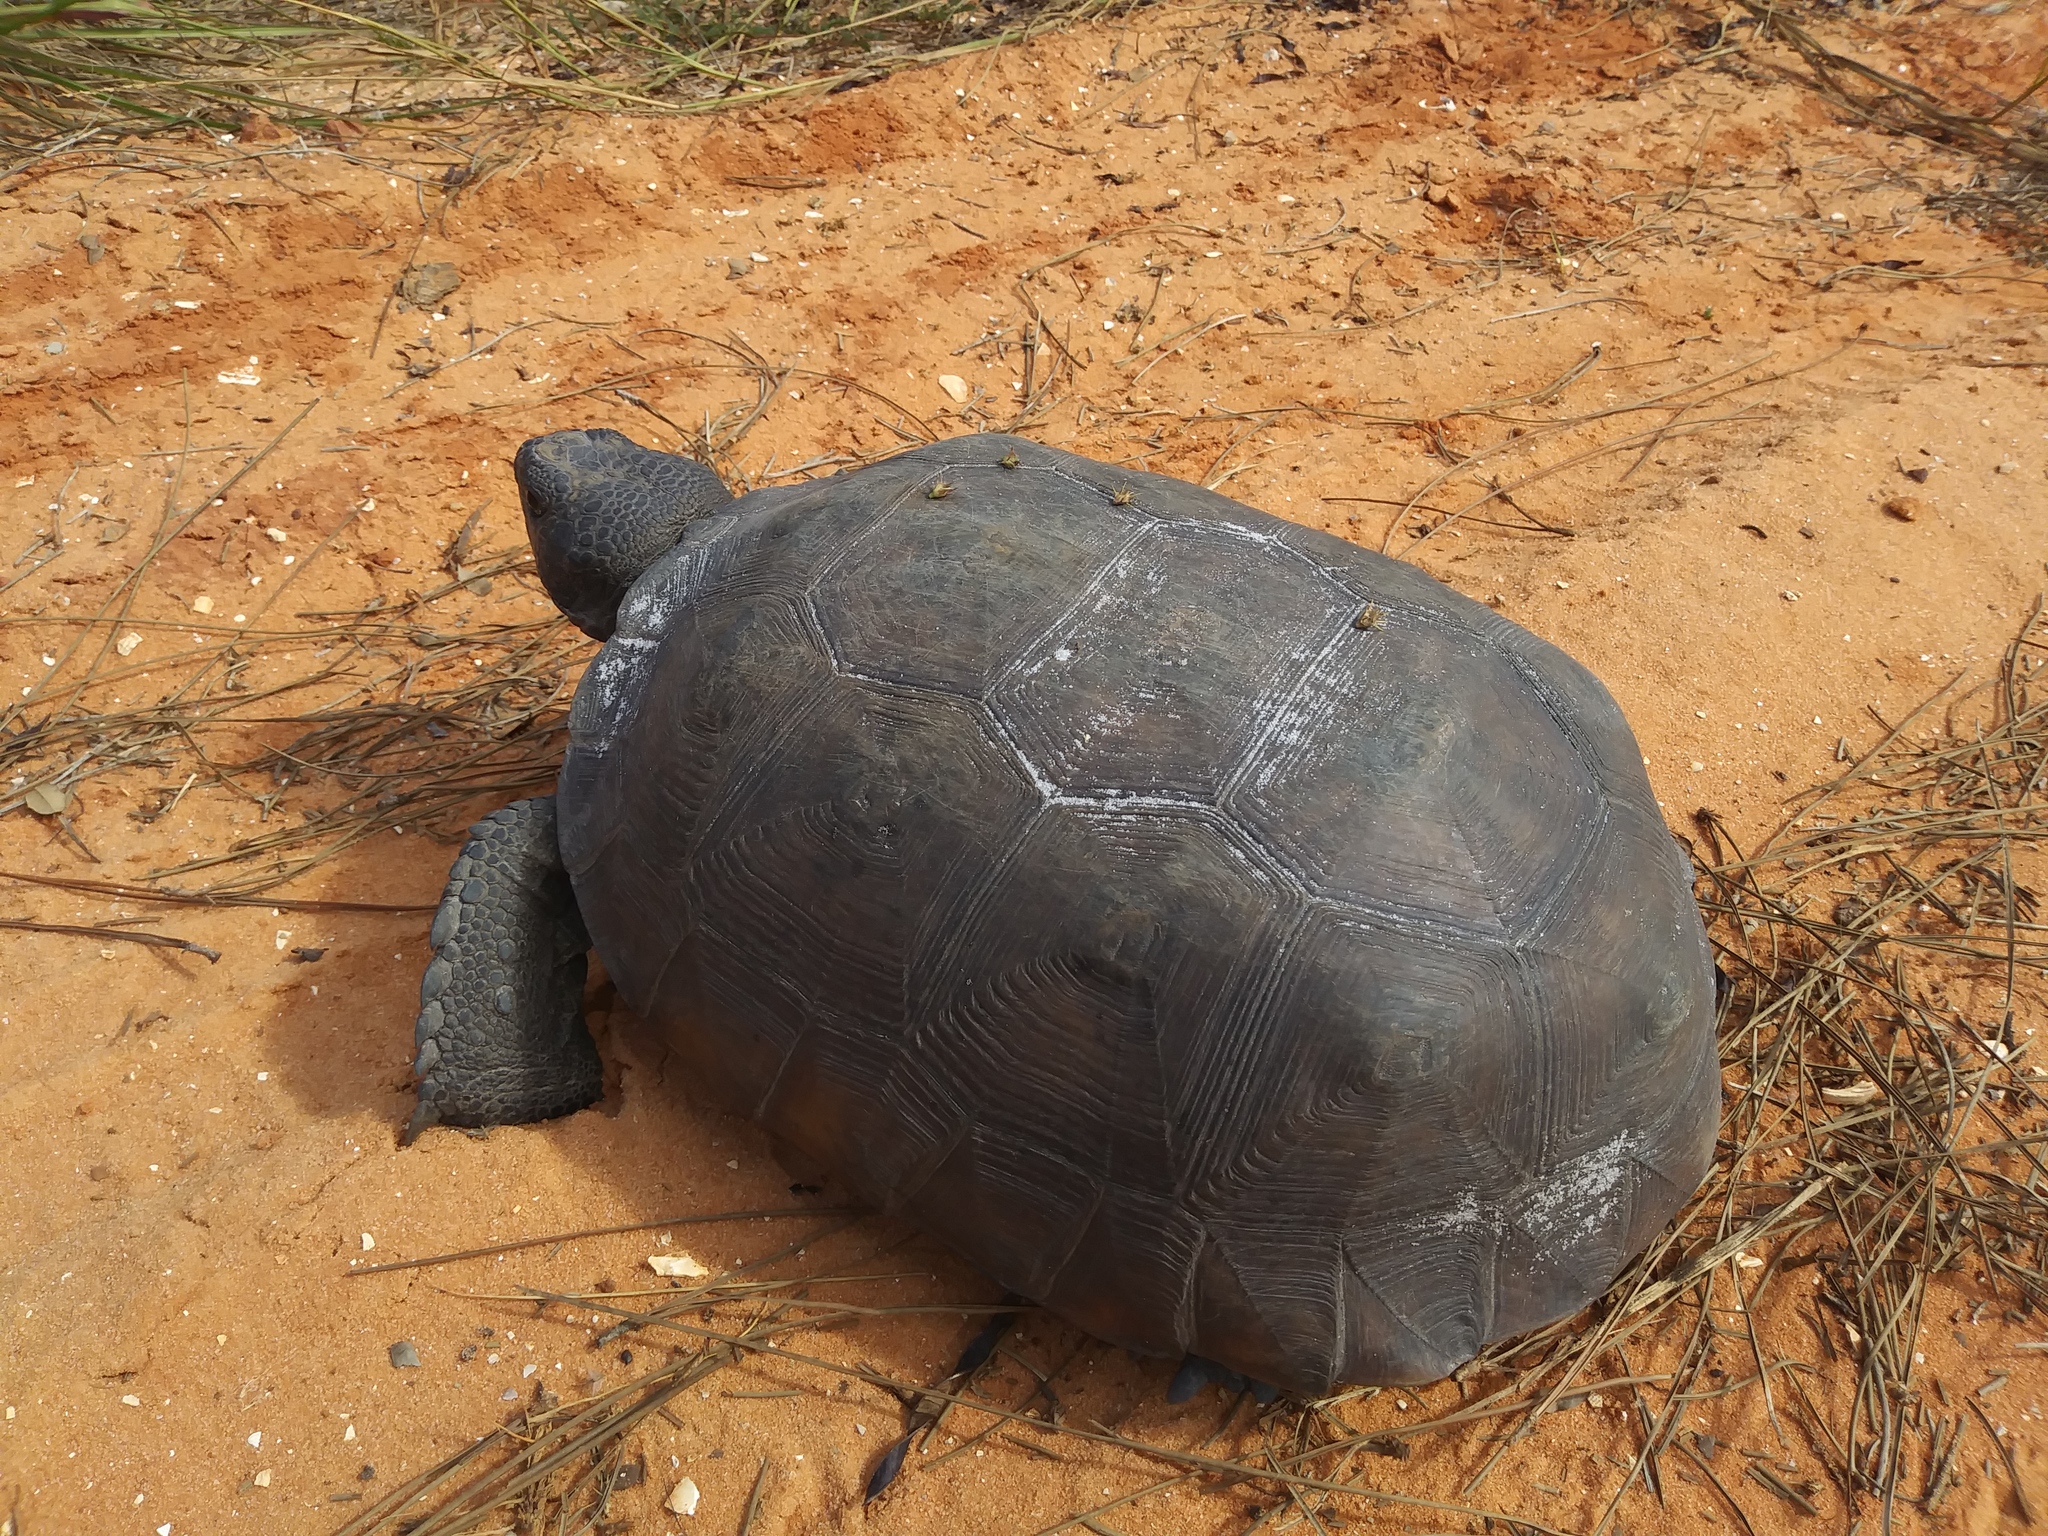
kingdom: Animalia
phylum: Chordata
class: Testudines
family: Testudinidae
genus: Gopherus
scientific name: Gopherus polyphemus
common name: Florida gopher tortoise
